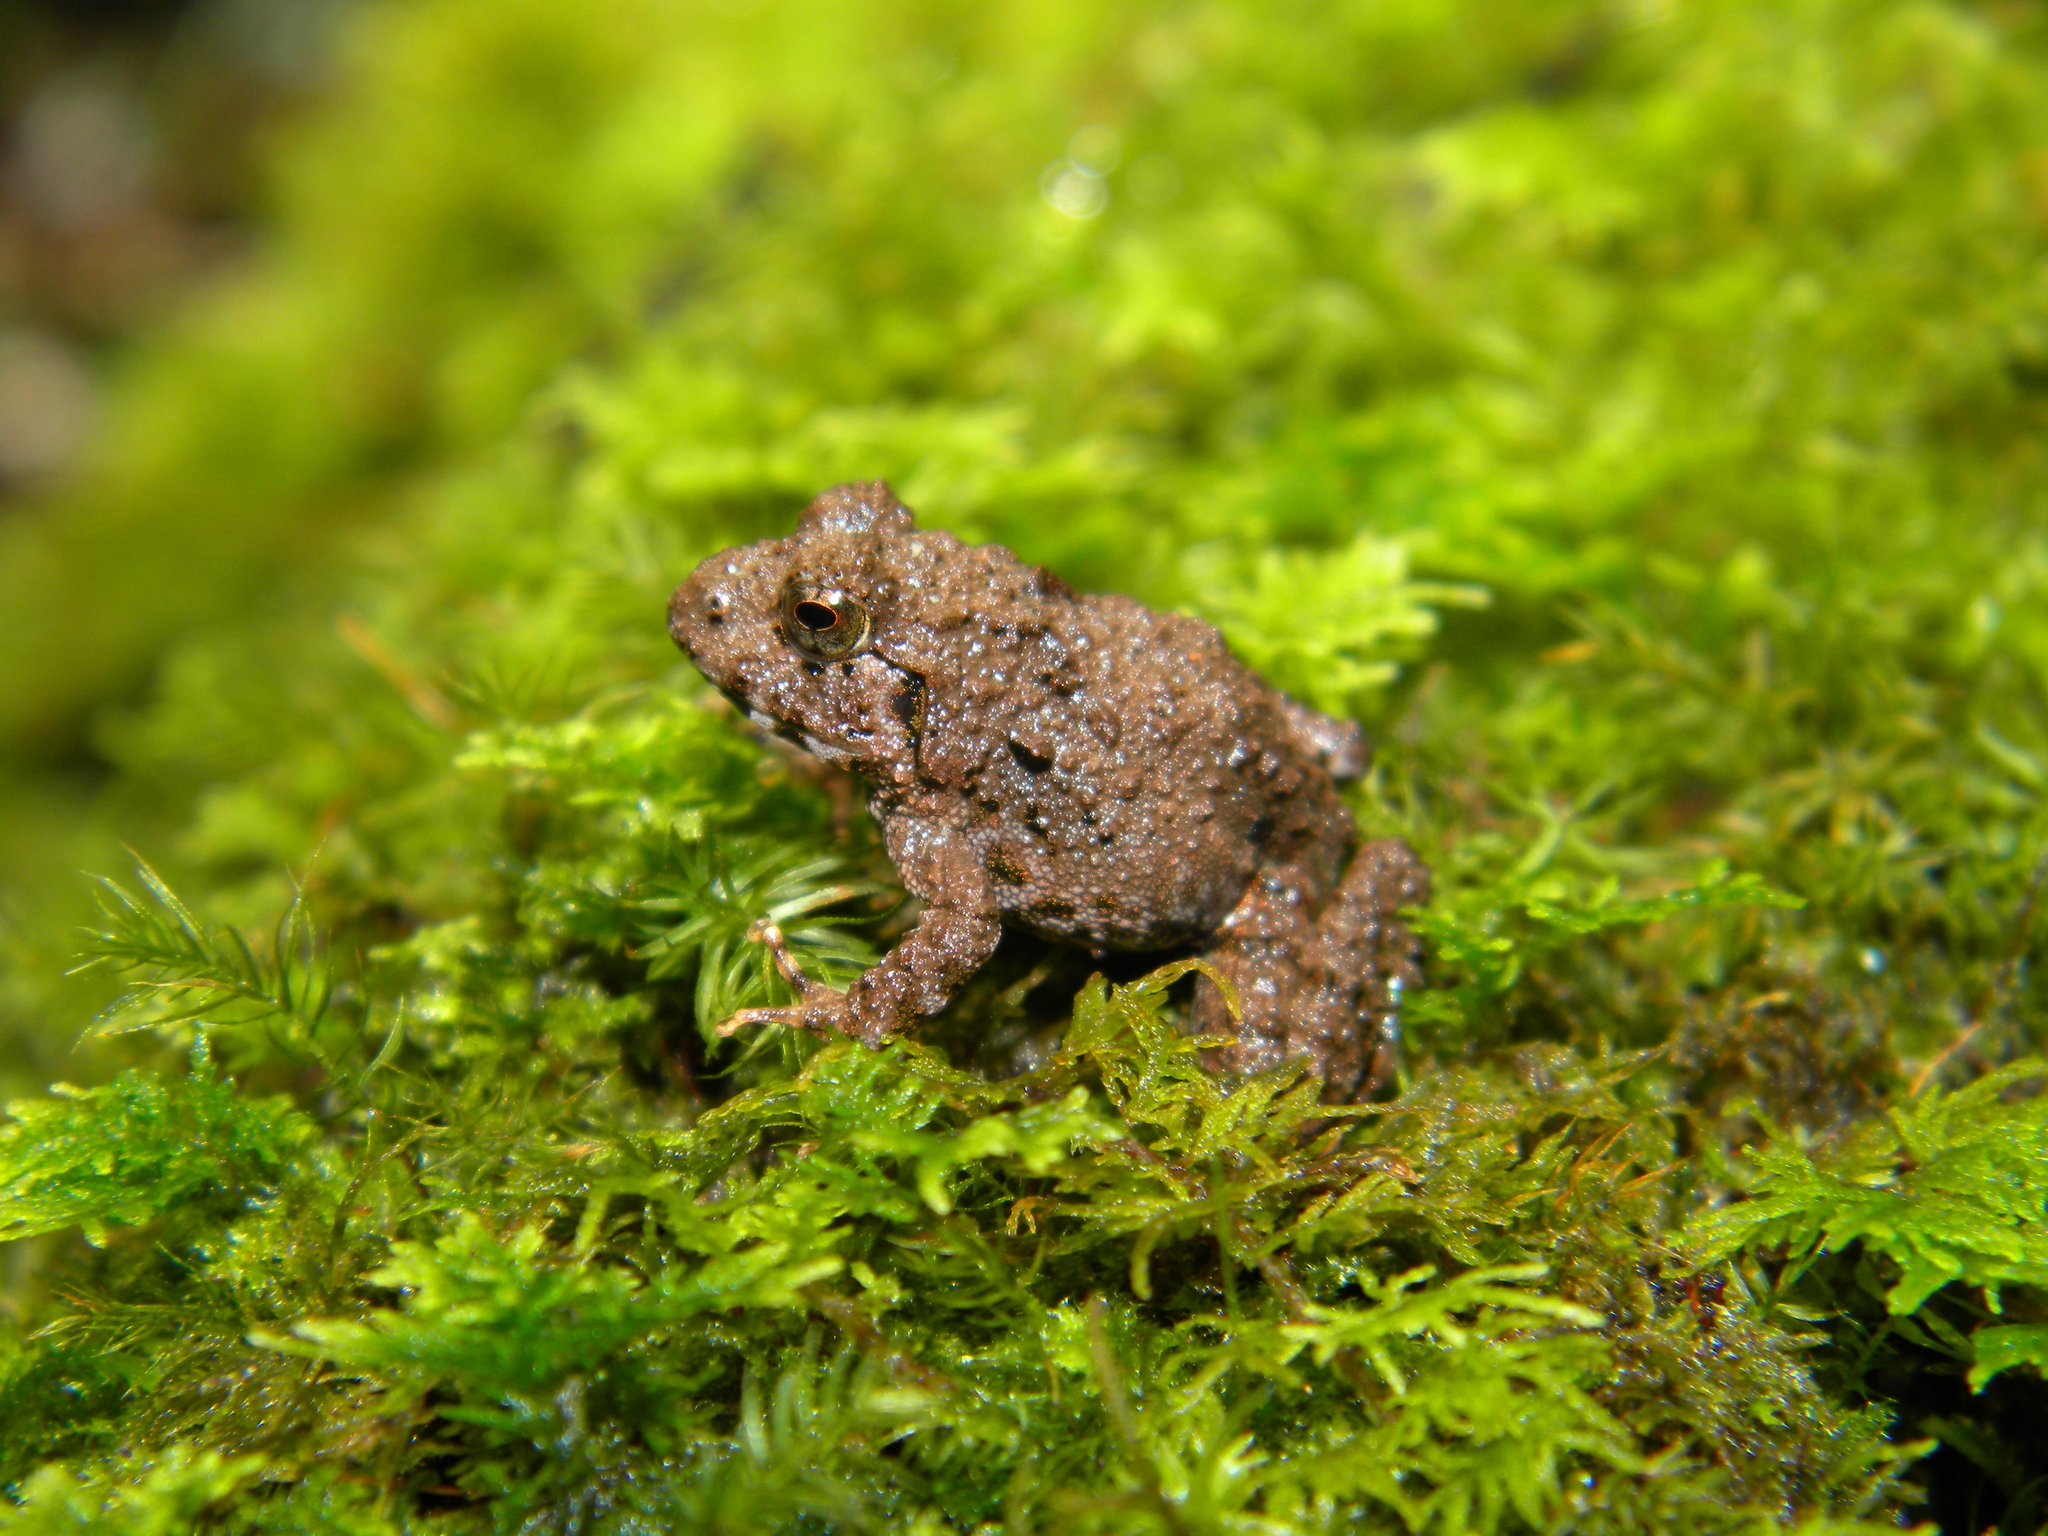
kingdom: Animalia
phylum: Chordata
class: Amphibia
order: Anura
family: Ranixalidae
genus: Walkerana
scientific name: Walkerana phrynoderma
